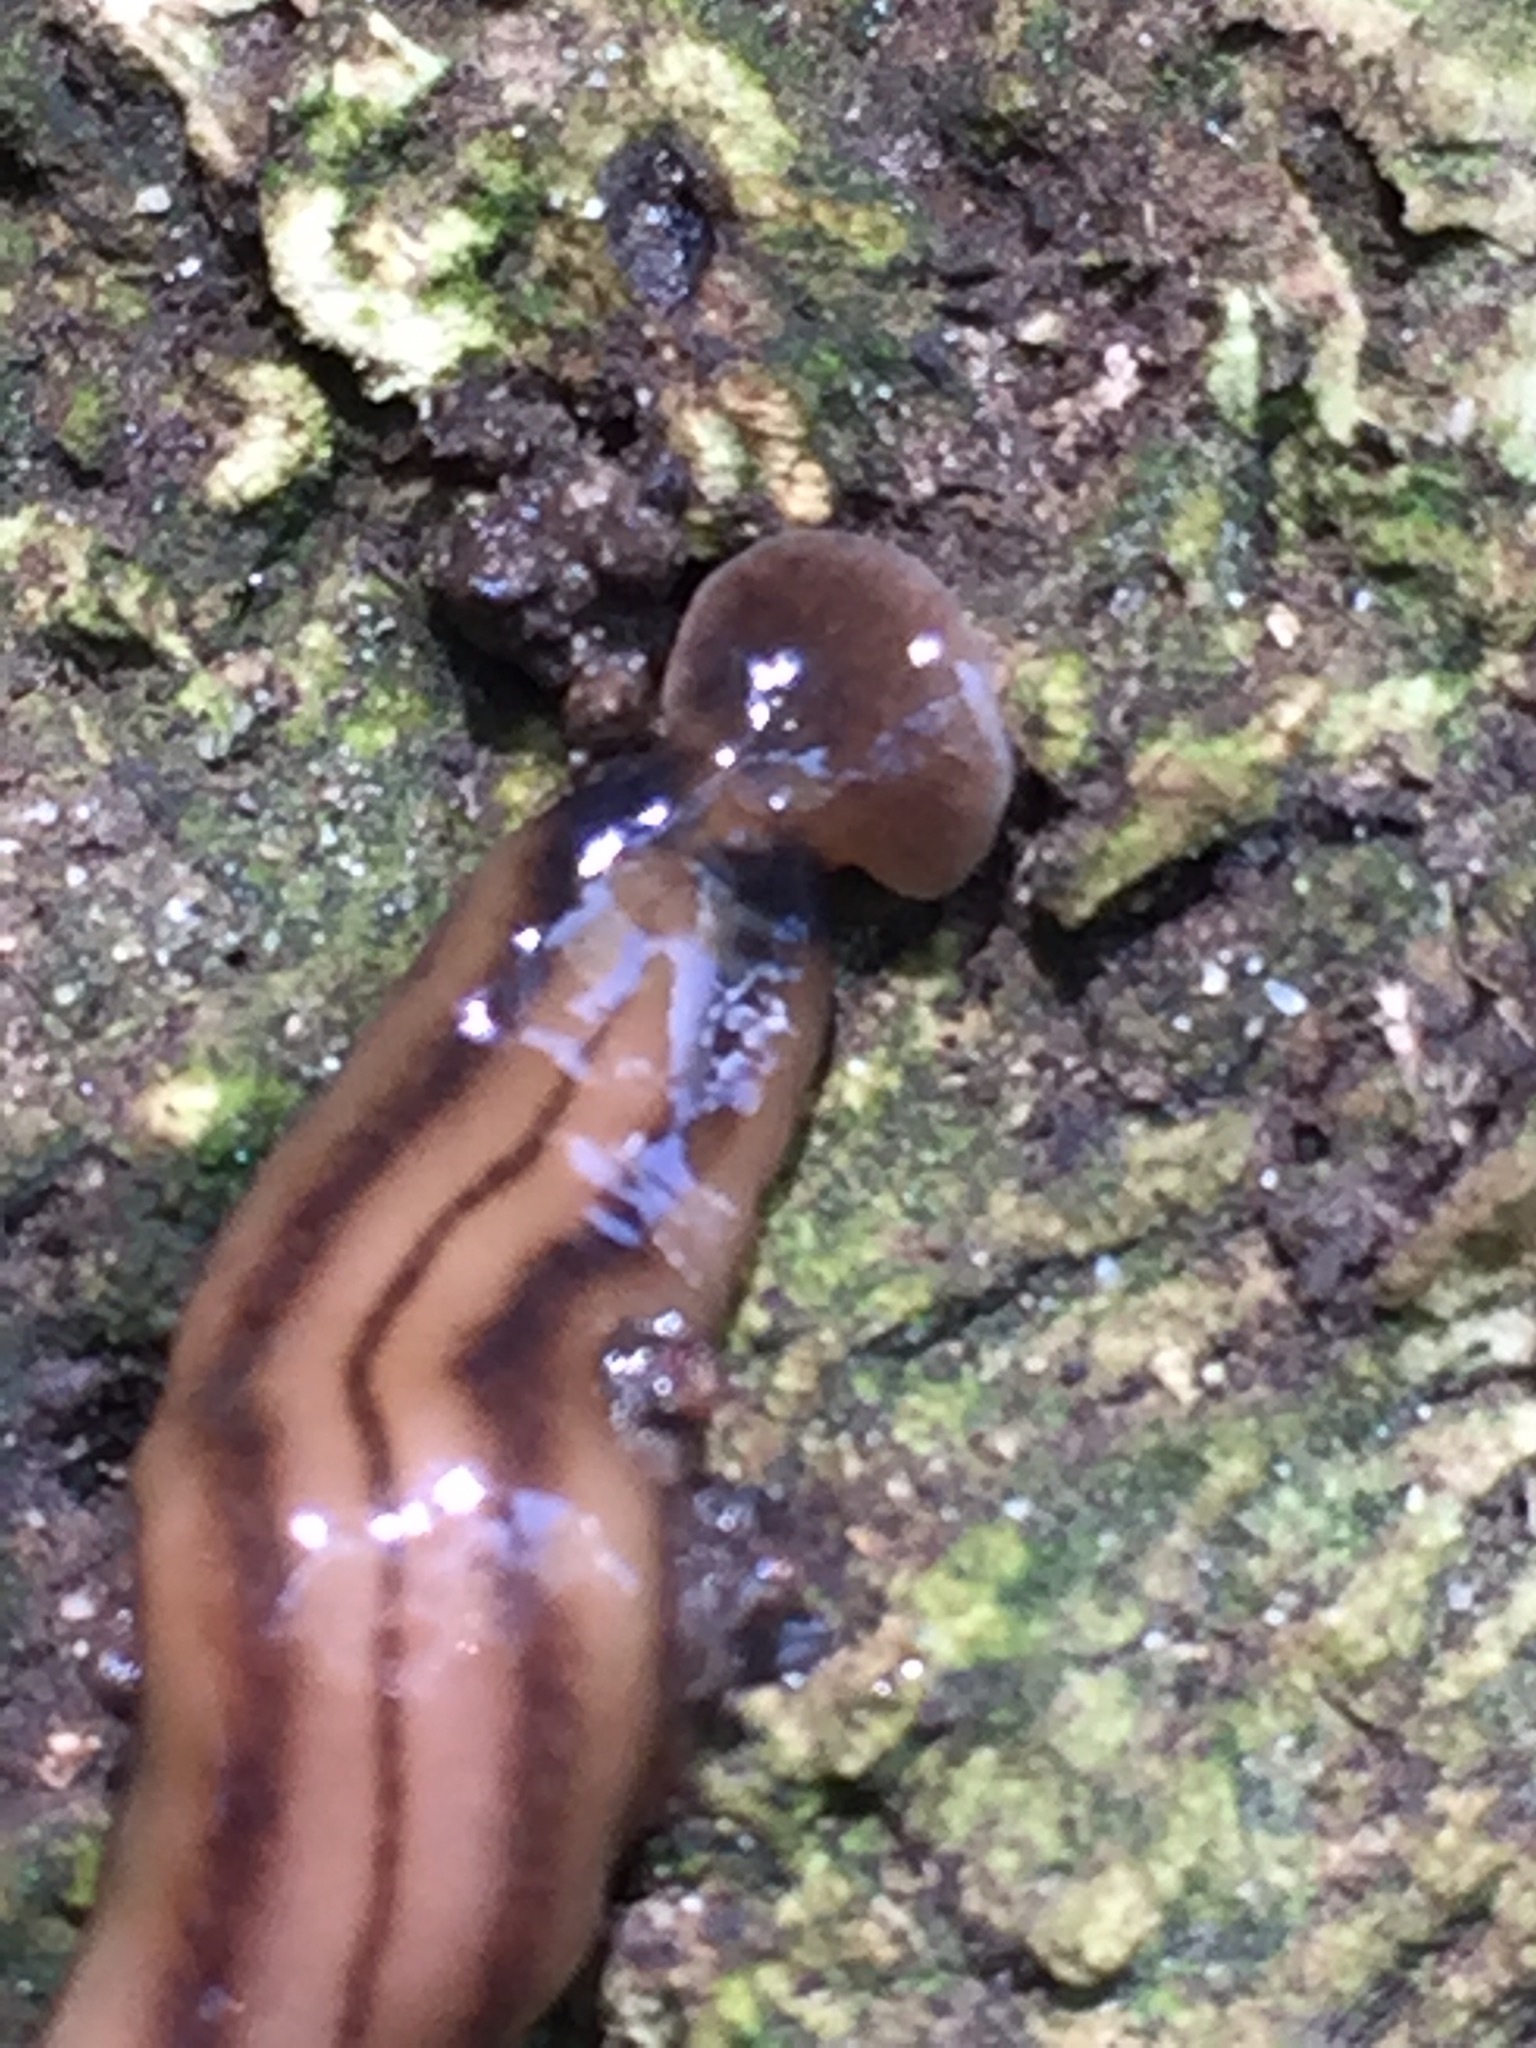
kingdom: Animalia
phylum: Platyhelminthes
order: Tricladida
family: Geoplanidae
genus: Bipalium
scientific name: Bipalium kewense
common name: Hammerhead flatworm
